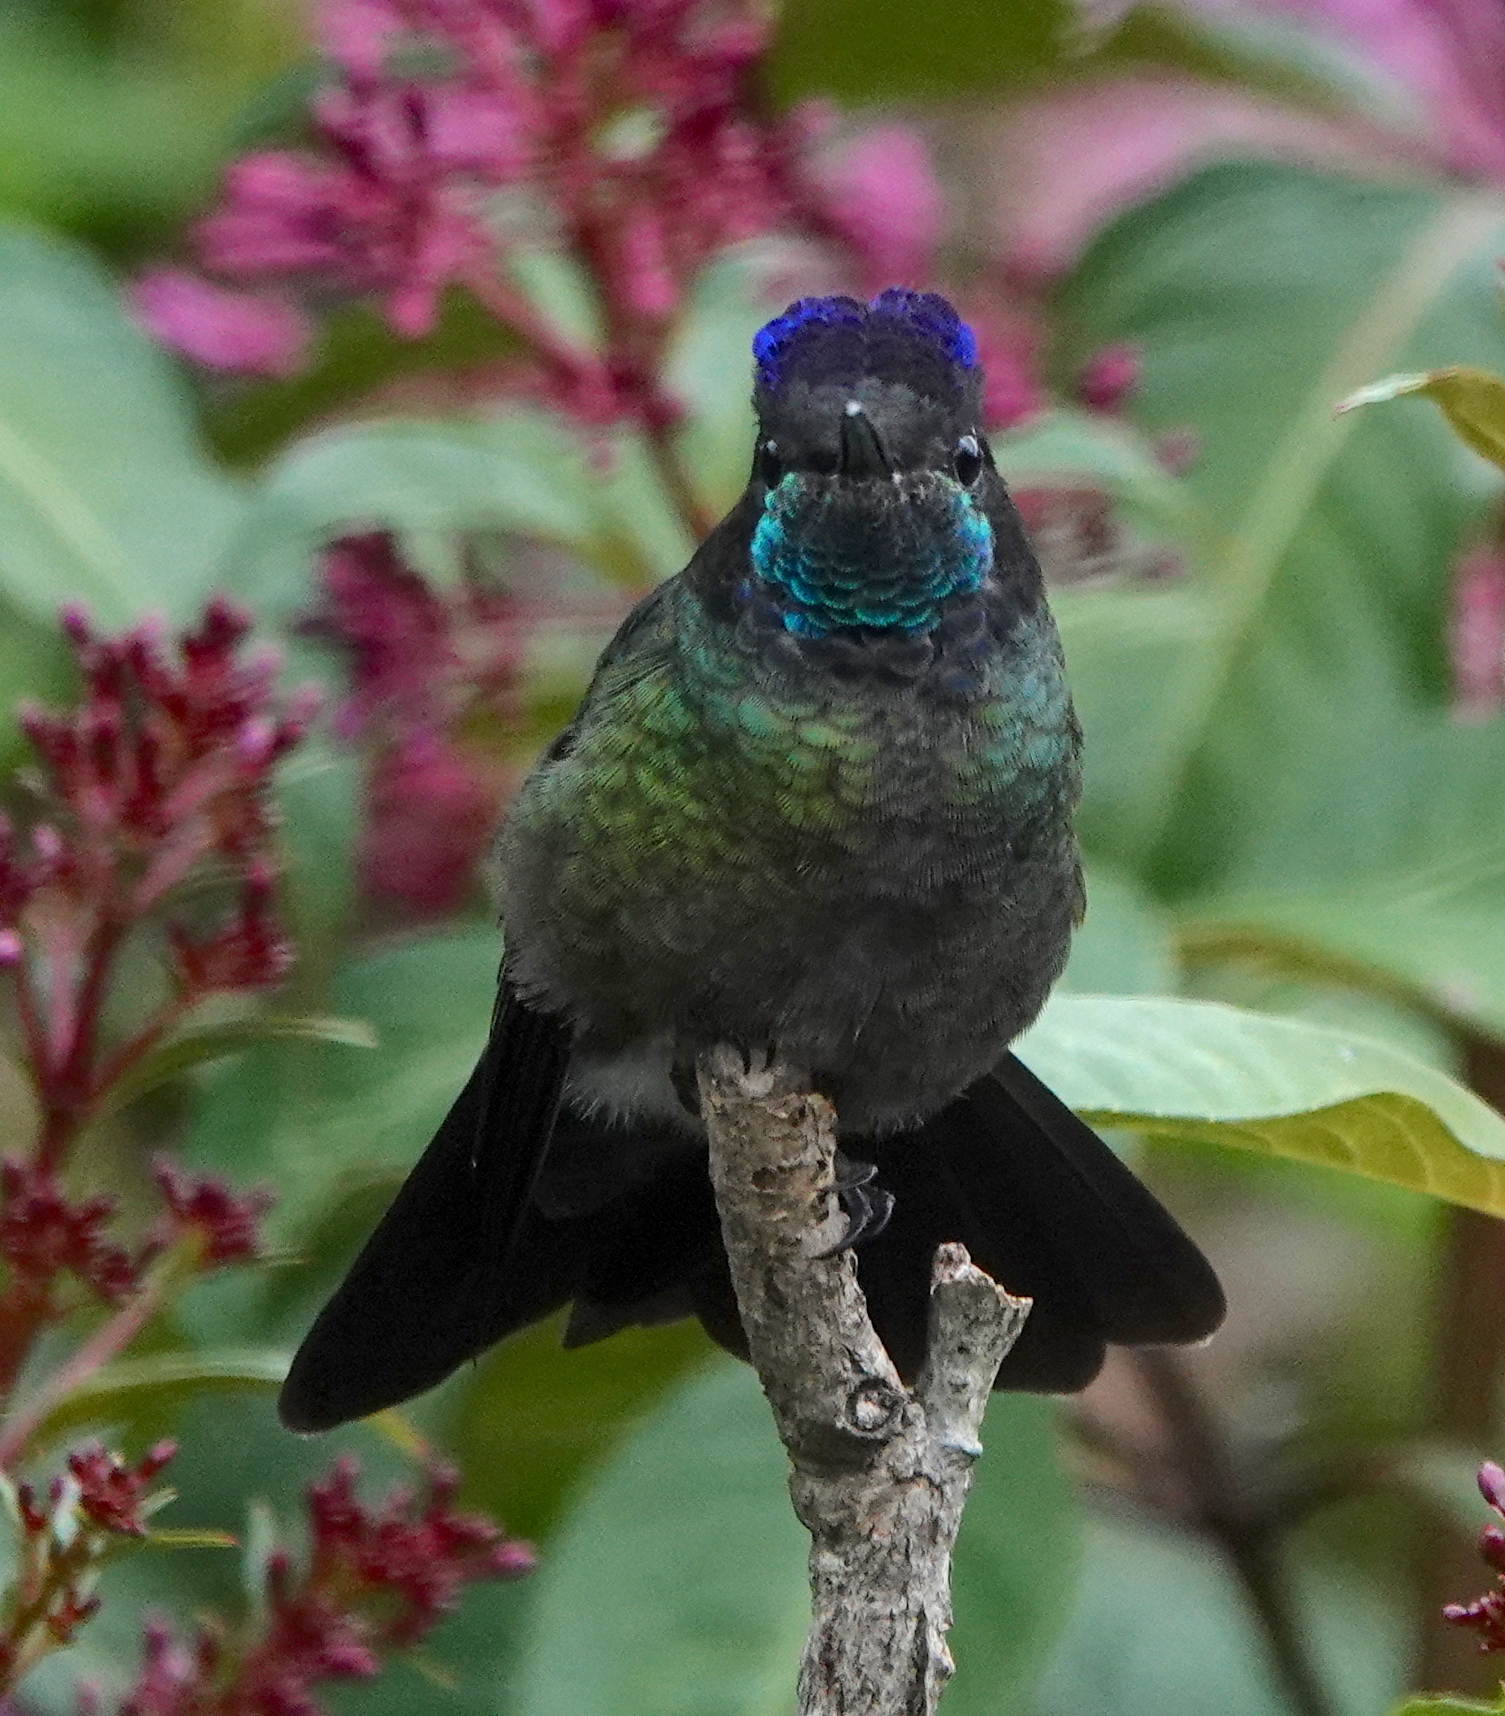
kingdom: Animalia
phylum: Chordata
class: Aves
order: Apodiformes
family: Trochilidae
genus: Eugenes
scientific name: Eugenes spectabilis
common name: Talamanca hummingbird
